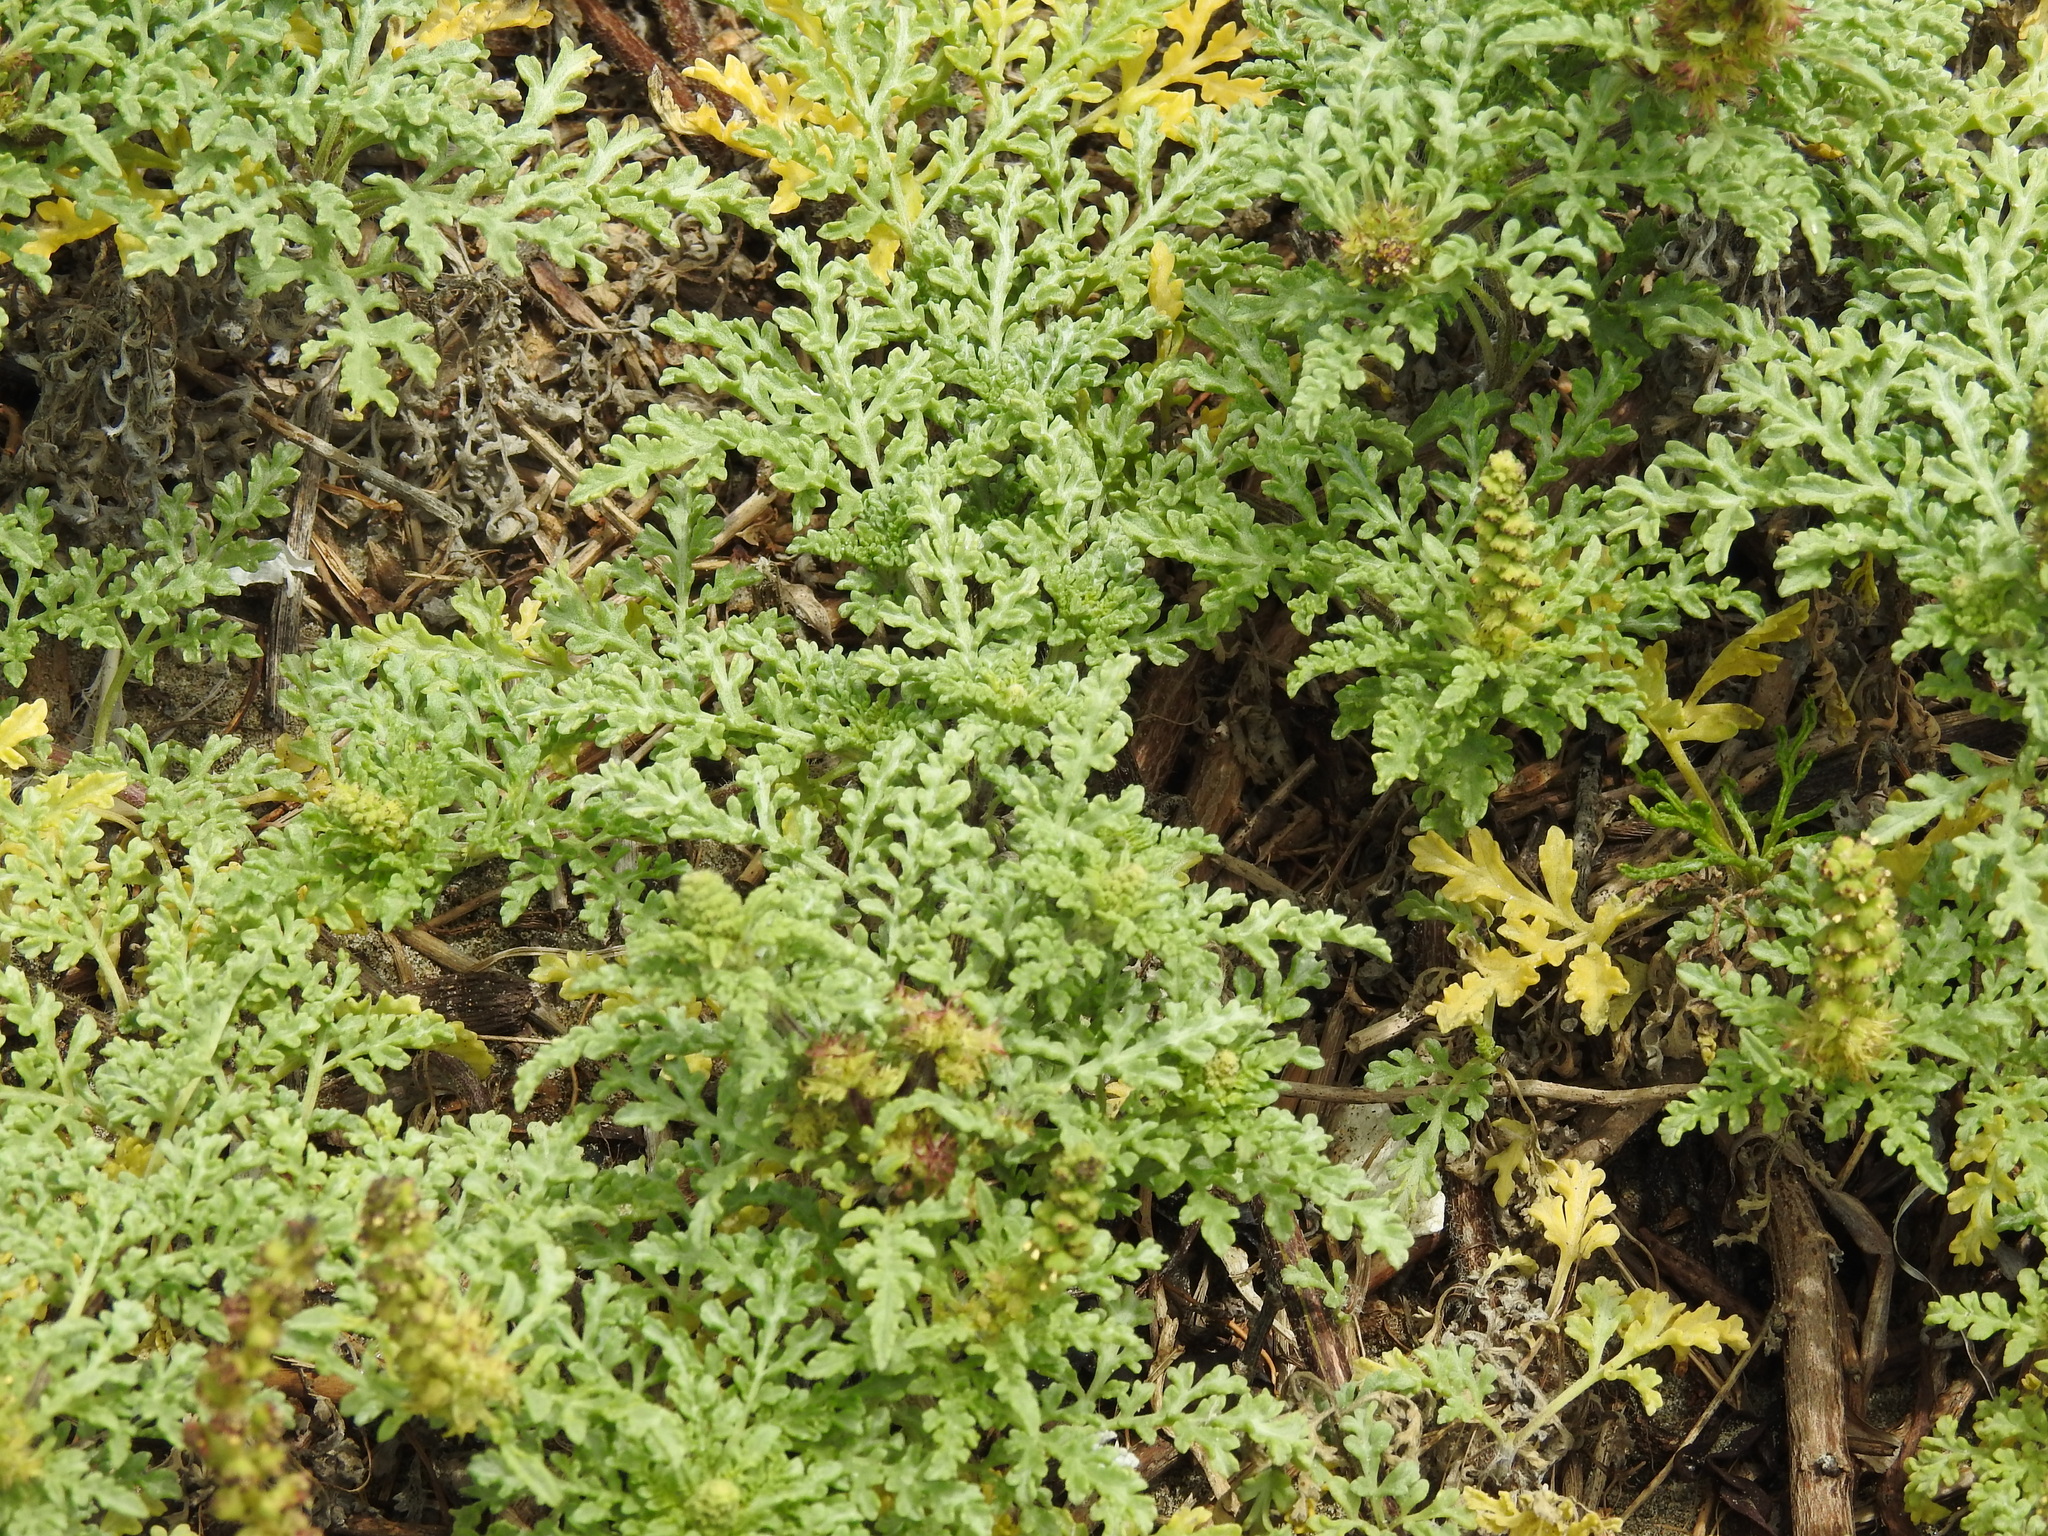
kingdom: Plantae
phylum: Tracheophyta
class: Magnoliopsida
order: Asterales
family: Asteraceae
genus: Ambrosia
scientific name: Ambrosia chamissonis
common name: Beachbur
